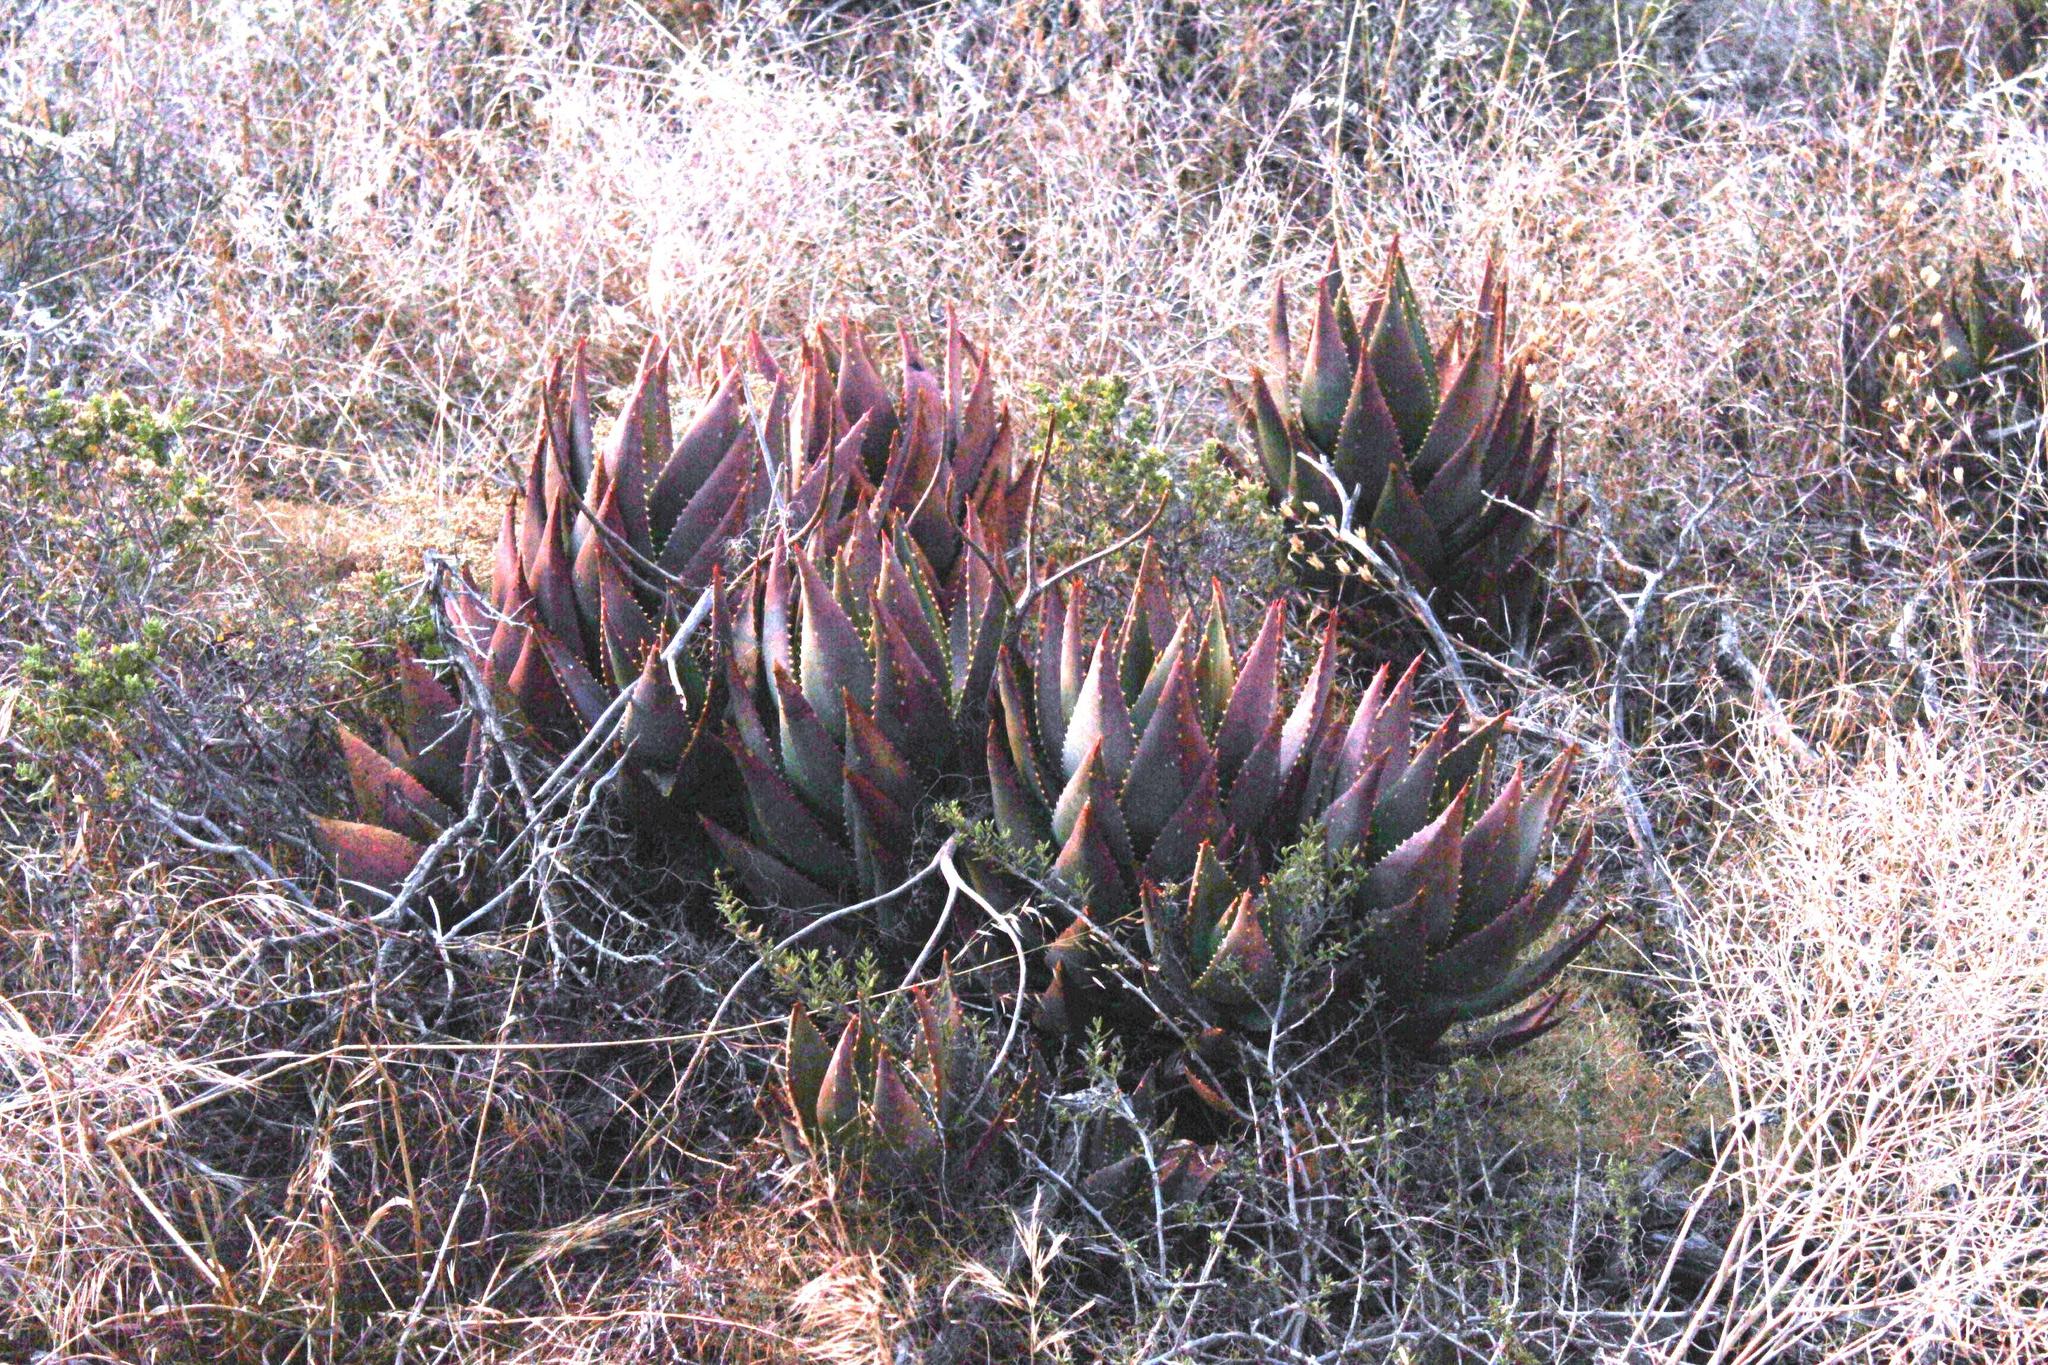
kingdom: Plantae
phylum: Tracheophyta
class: Liliopsida
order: Asparagales
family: Asphodelaceae
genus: Aloe
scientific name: Aloe perfoliata
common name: Mitra aloe
